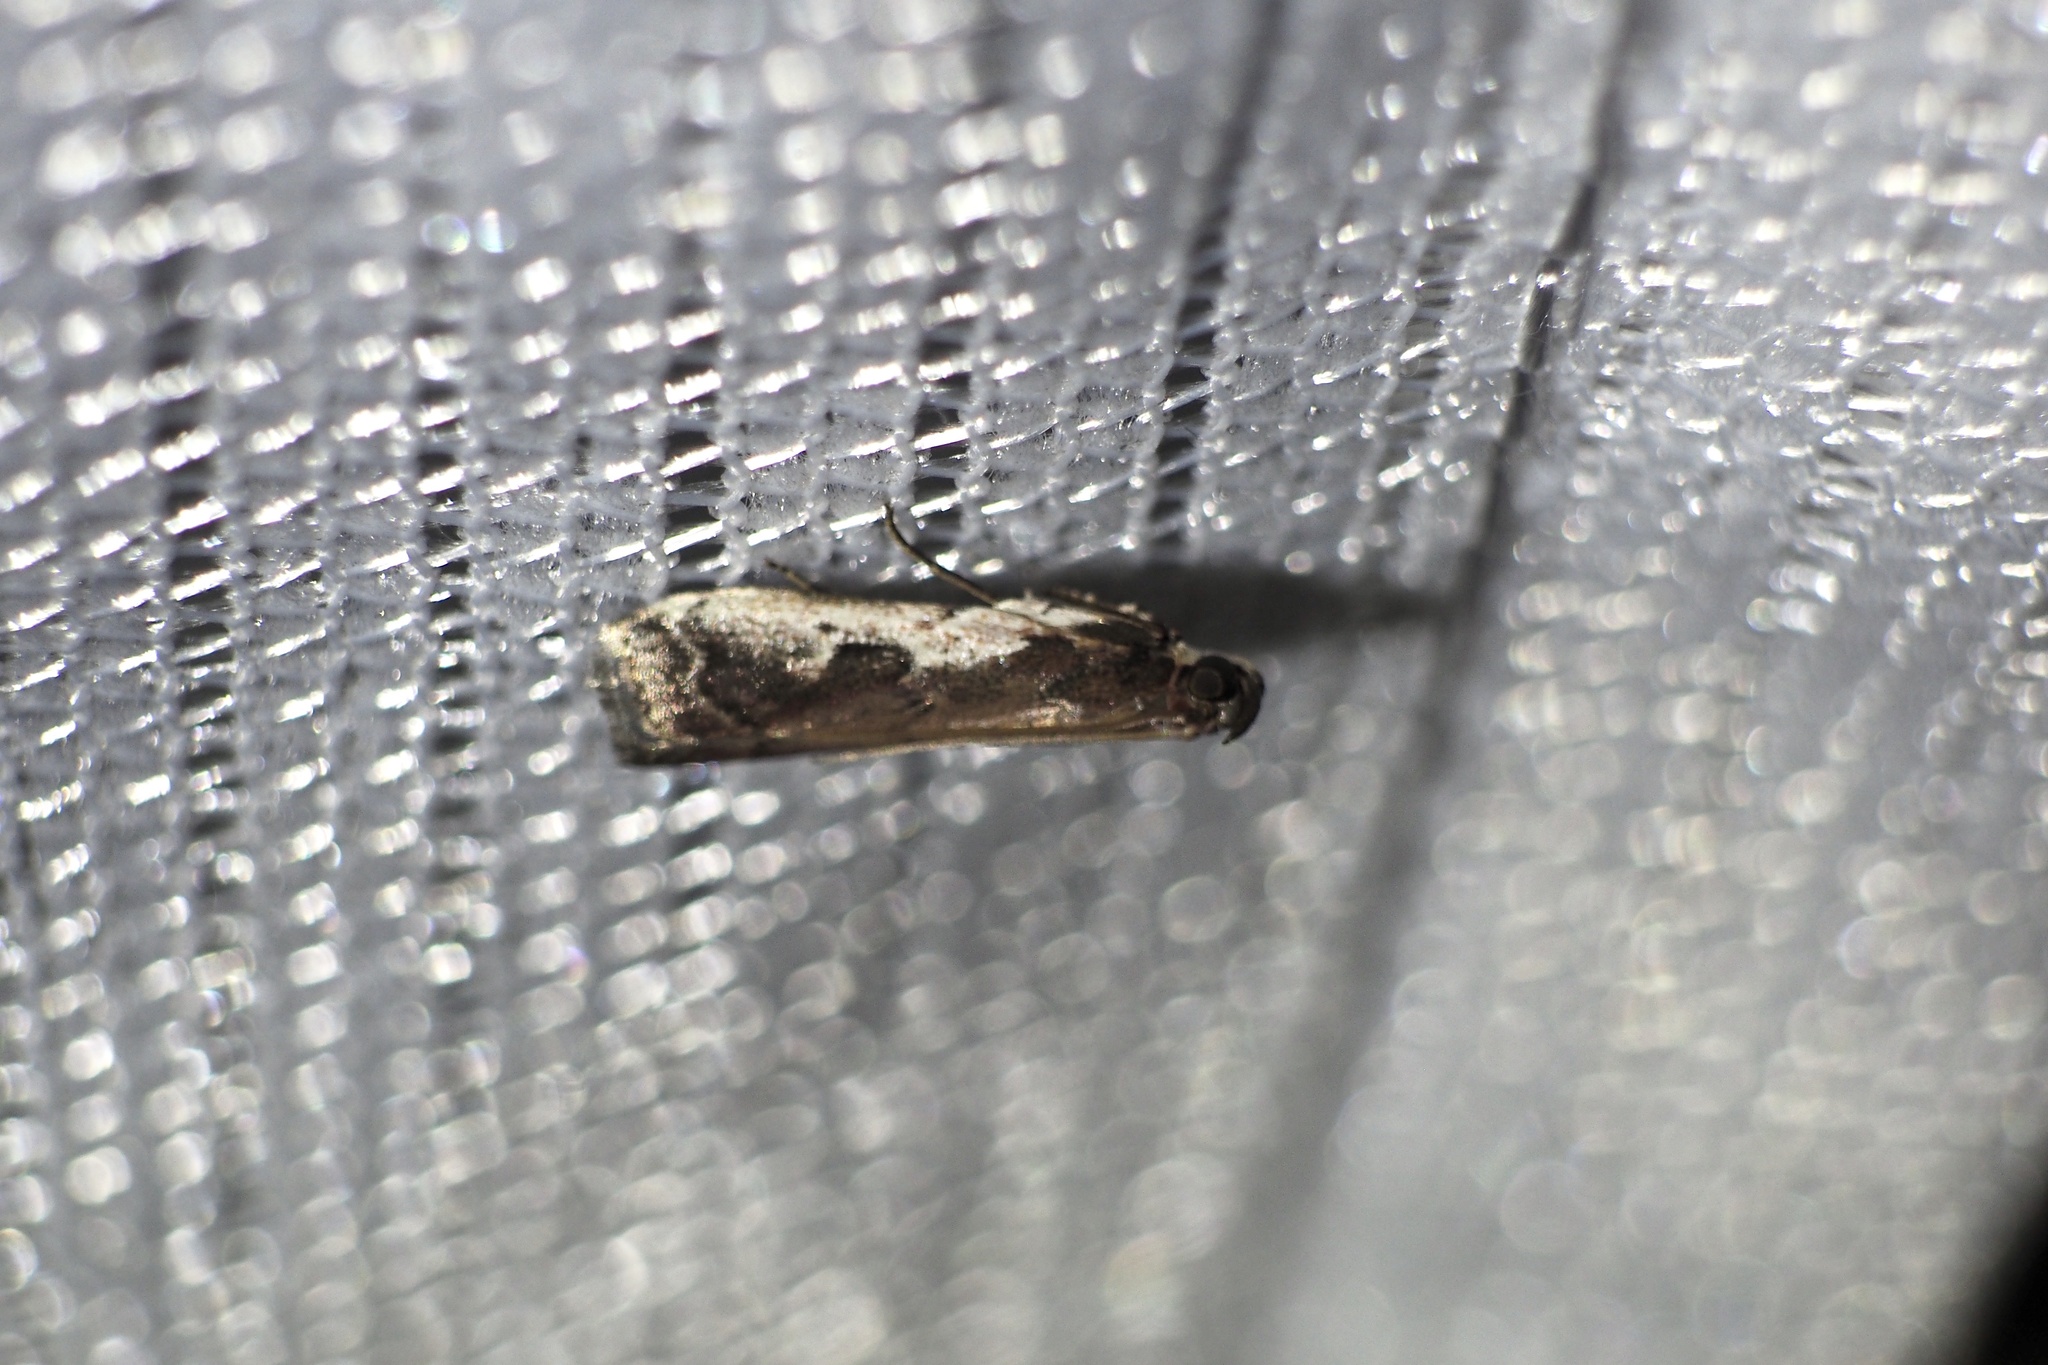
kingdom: Animalia
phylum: Arthropoda
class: Insecta
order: Lepidoptera
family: Pyralidae
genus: Rhodophaea
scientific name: Rhodophaea
